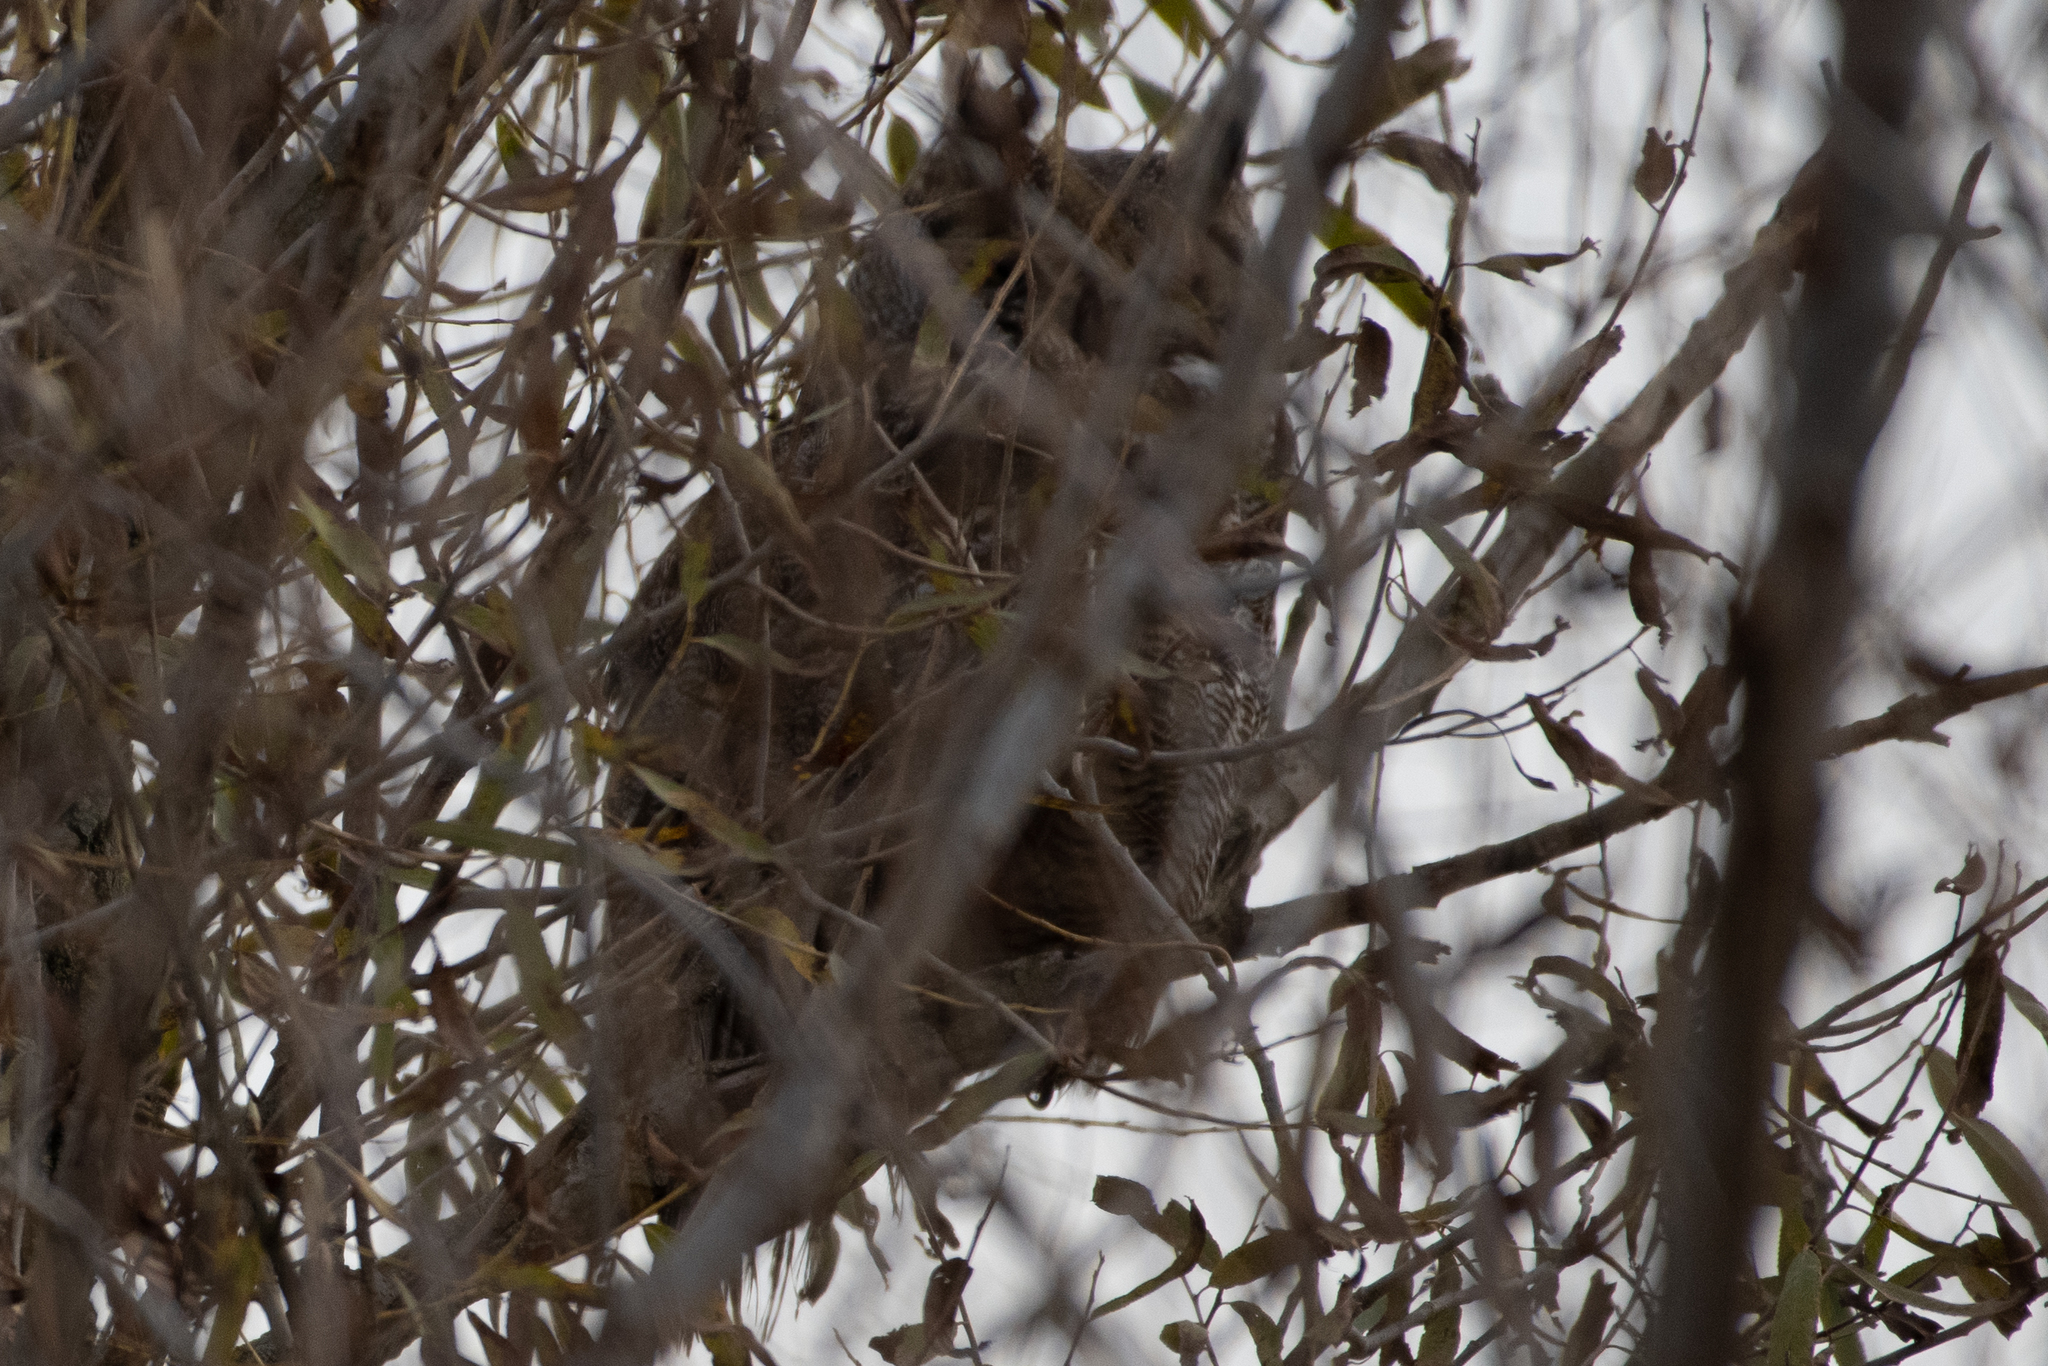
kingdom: Animalia
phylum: Chordata
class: Aves
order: Strigiformes
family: Strigidae
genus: Bubo
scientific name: Bubo virginianus
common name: Great horned owl
